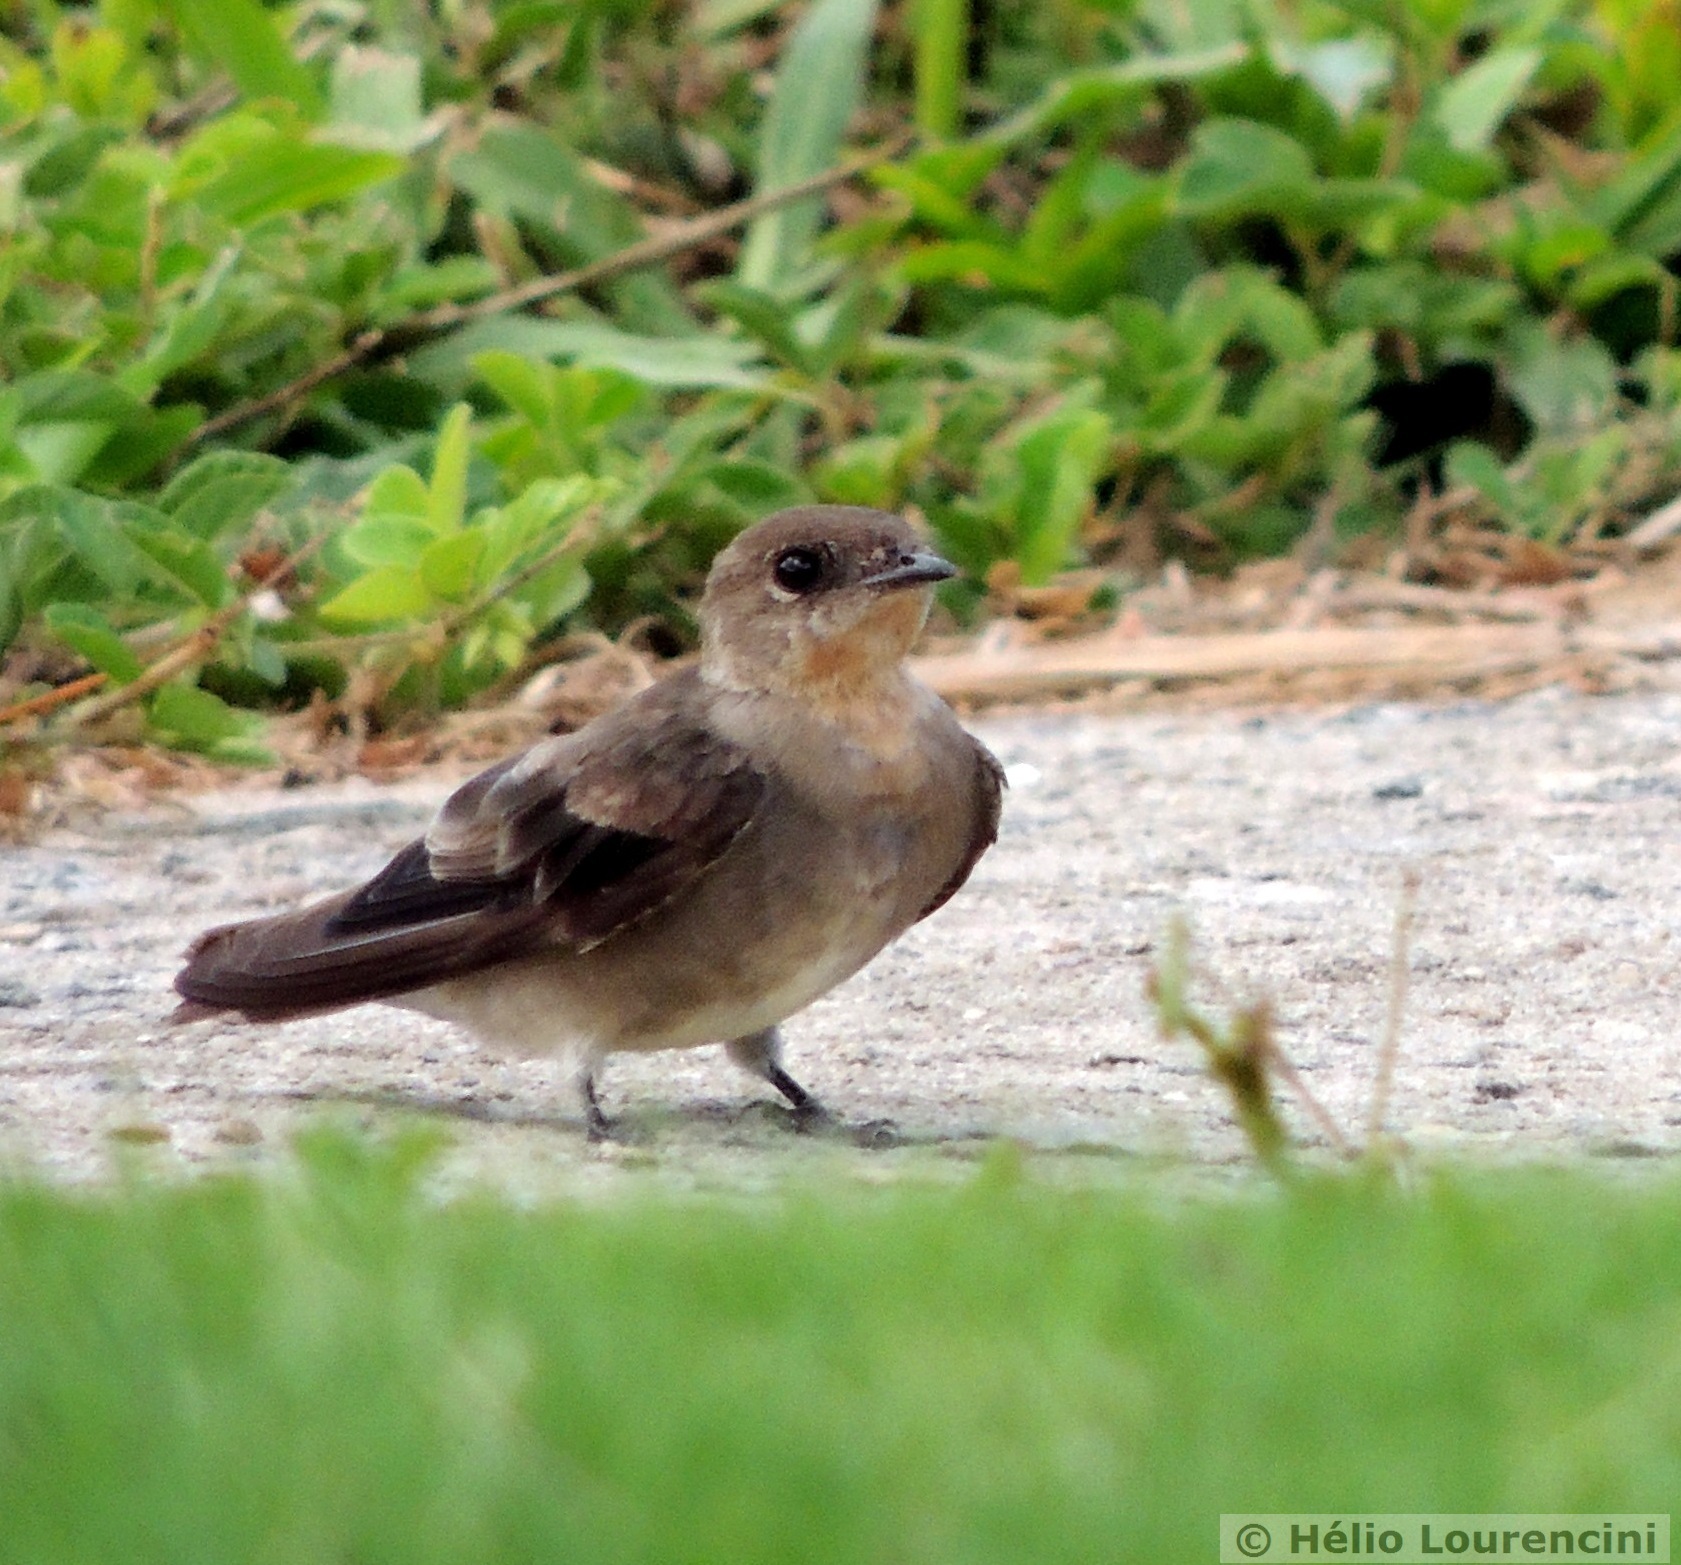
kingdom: Animalia
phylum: Chordata
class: Aves
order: Passeriformes
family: Hirundinidae
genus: Stelgidopteryx
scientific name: Stelgidopteryx ruficollis
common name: Southern rough-winged swallow
